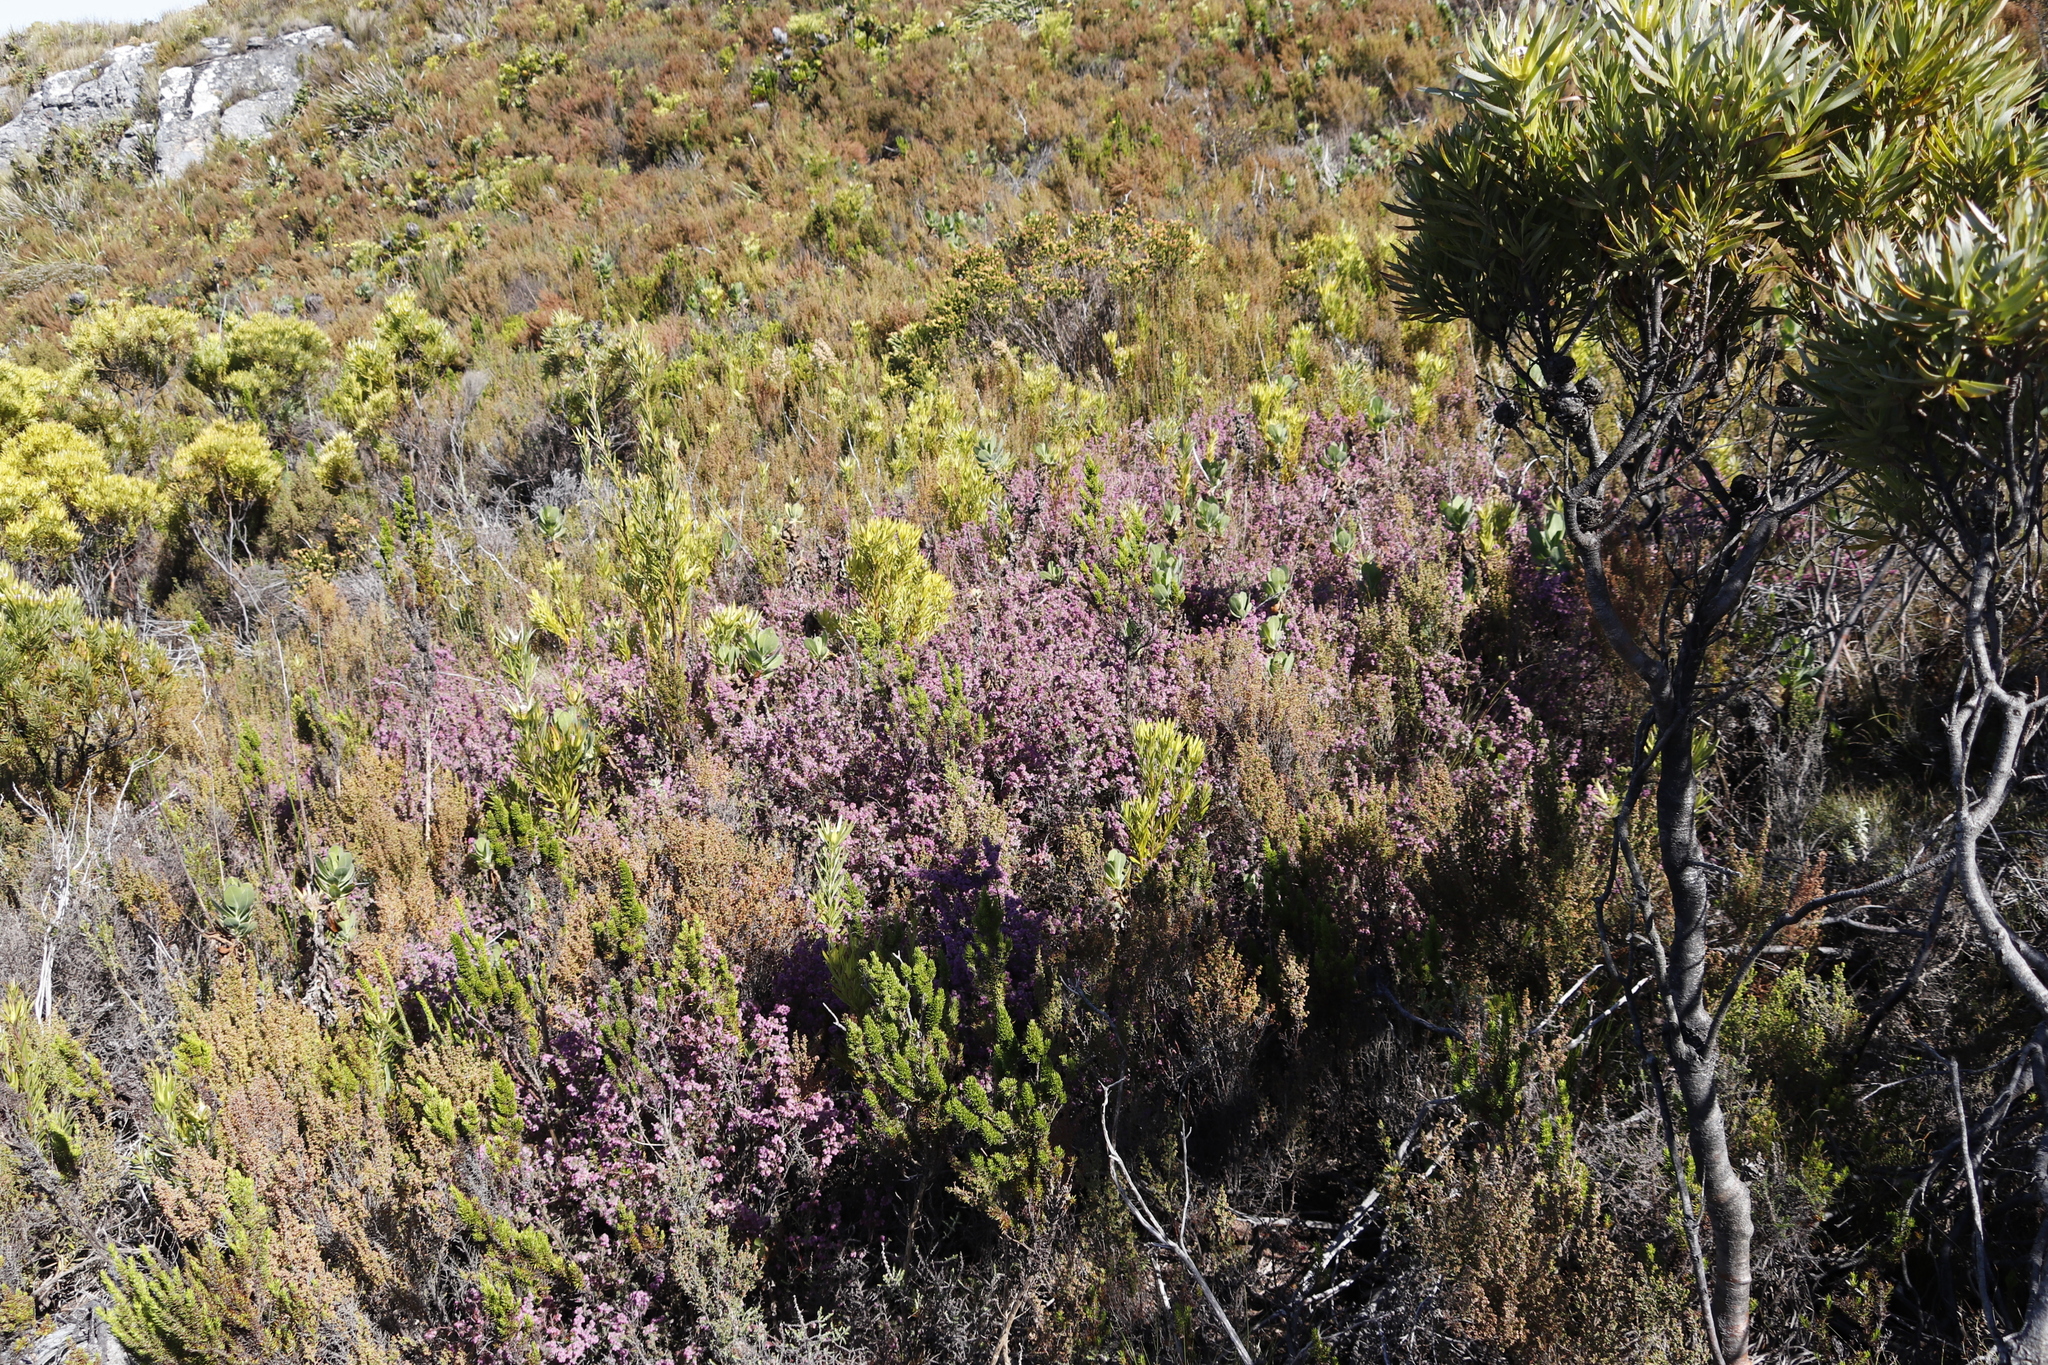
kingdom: Plantae
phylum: Tracheophyta
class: Magnoliopsida
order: Ericales
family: Ericaceae
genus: Erica
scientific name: Erica mollis
